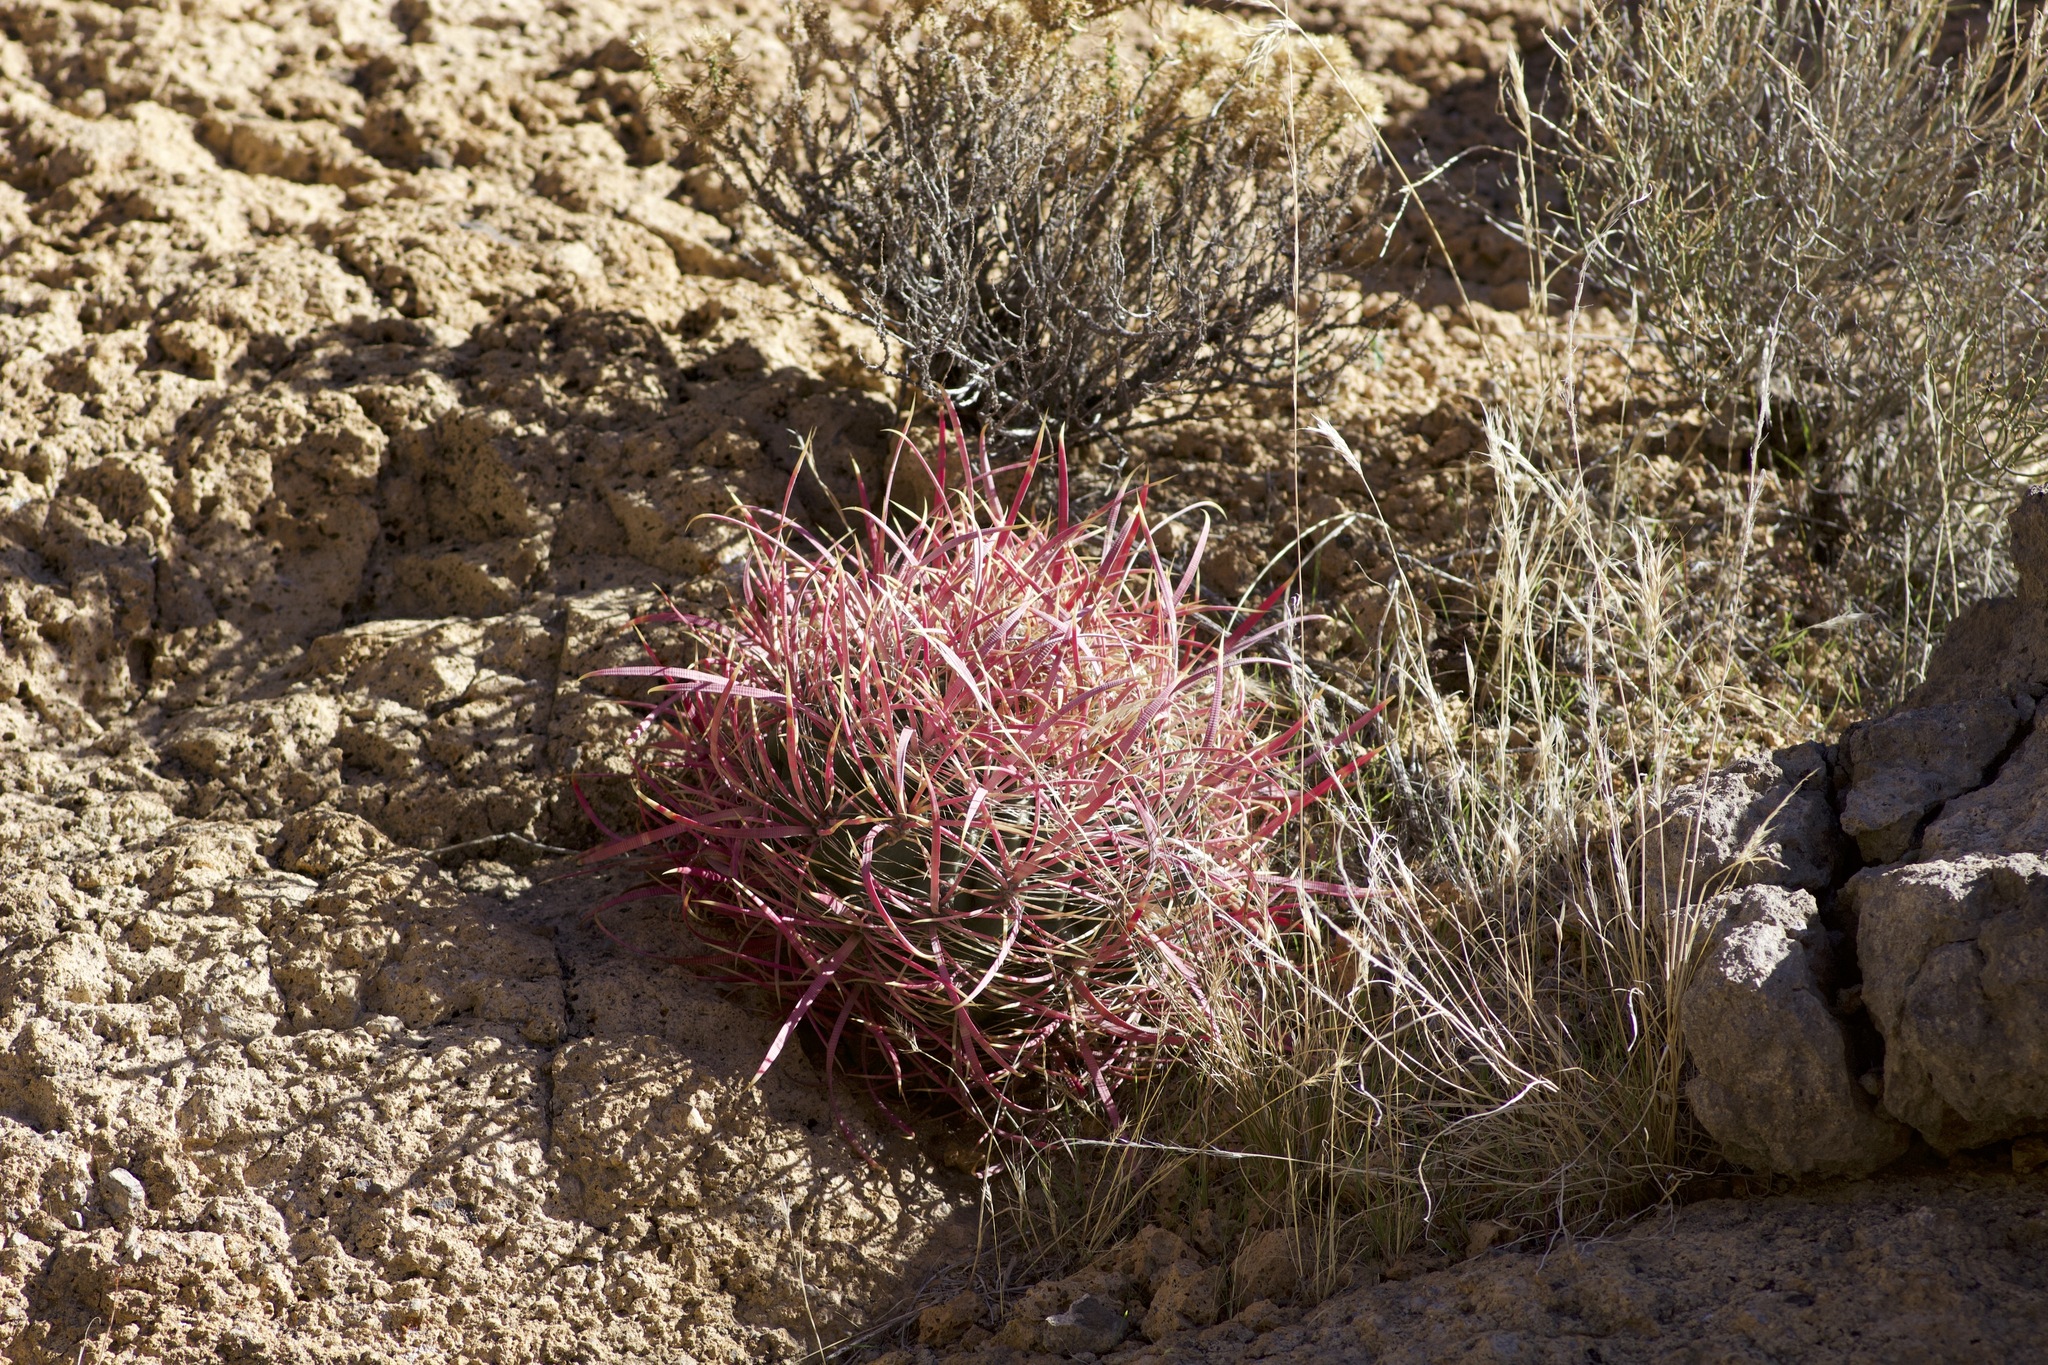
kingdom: Plantae
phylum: Tracheophyta
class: Magnoliopsida
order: Caryophyllales
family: Cactaceae
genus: Ferocactus
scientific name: Ferocactus cylindraceus
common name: California barrel cactus
